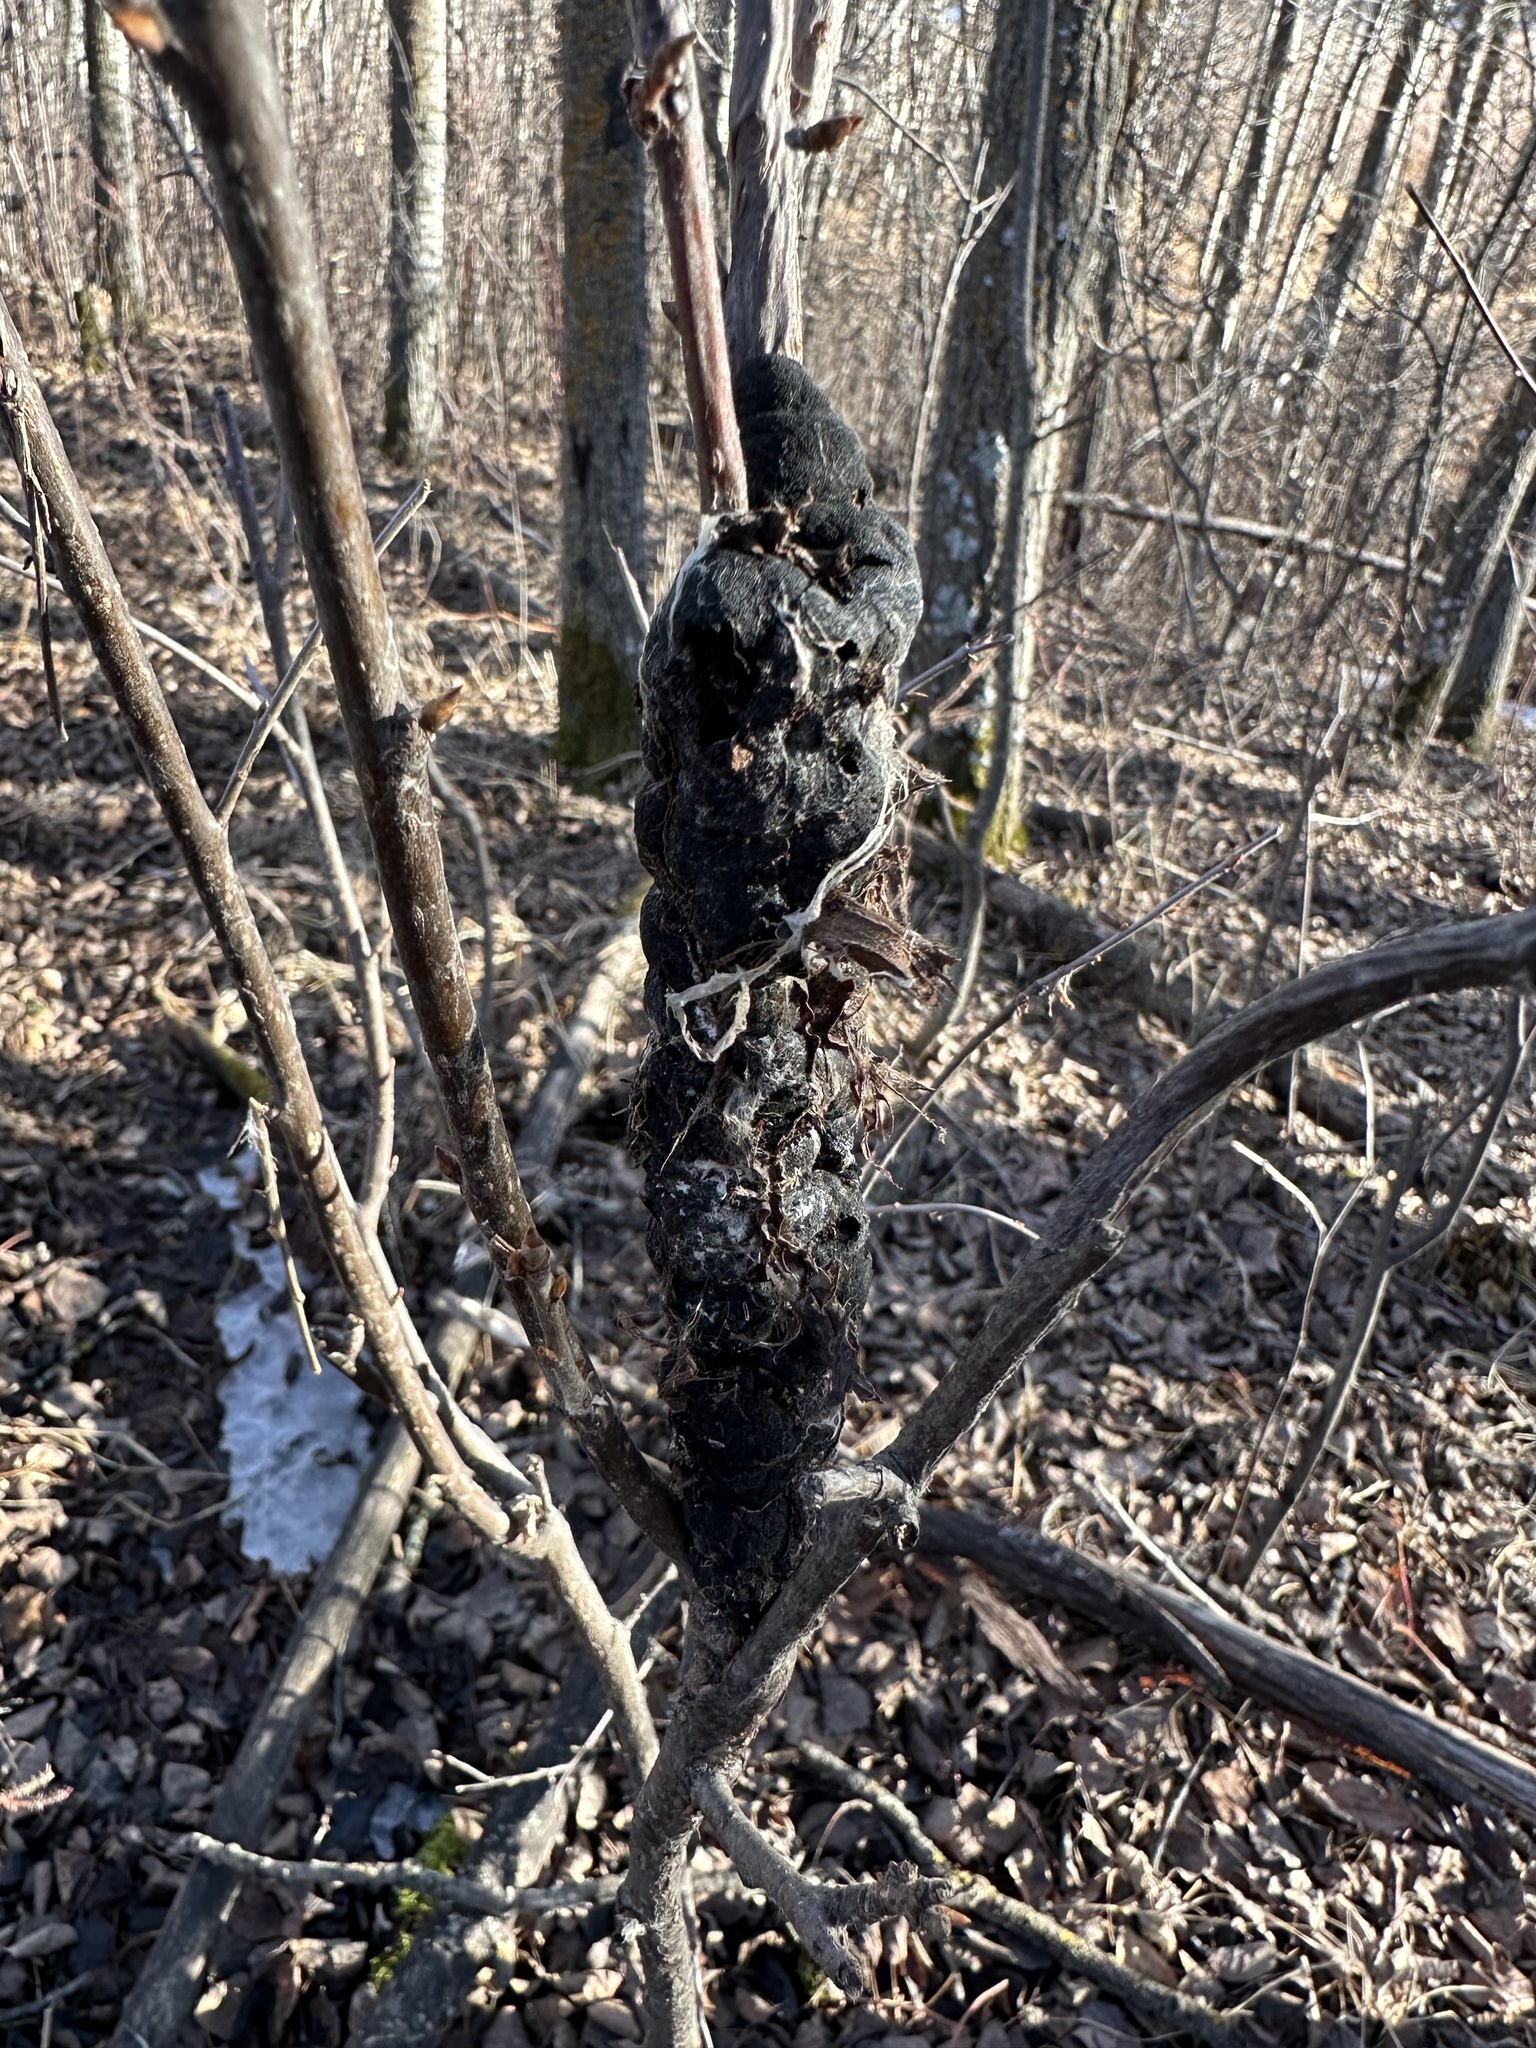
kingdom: Fungi
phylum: Ascomycota
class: Dothideomycetes
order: Venturiales
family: Venturiaceae
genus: Apiosporina
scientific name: Apiosporina morbosa
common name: Black knot
